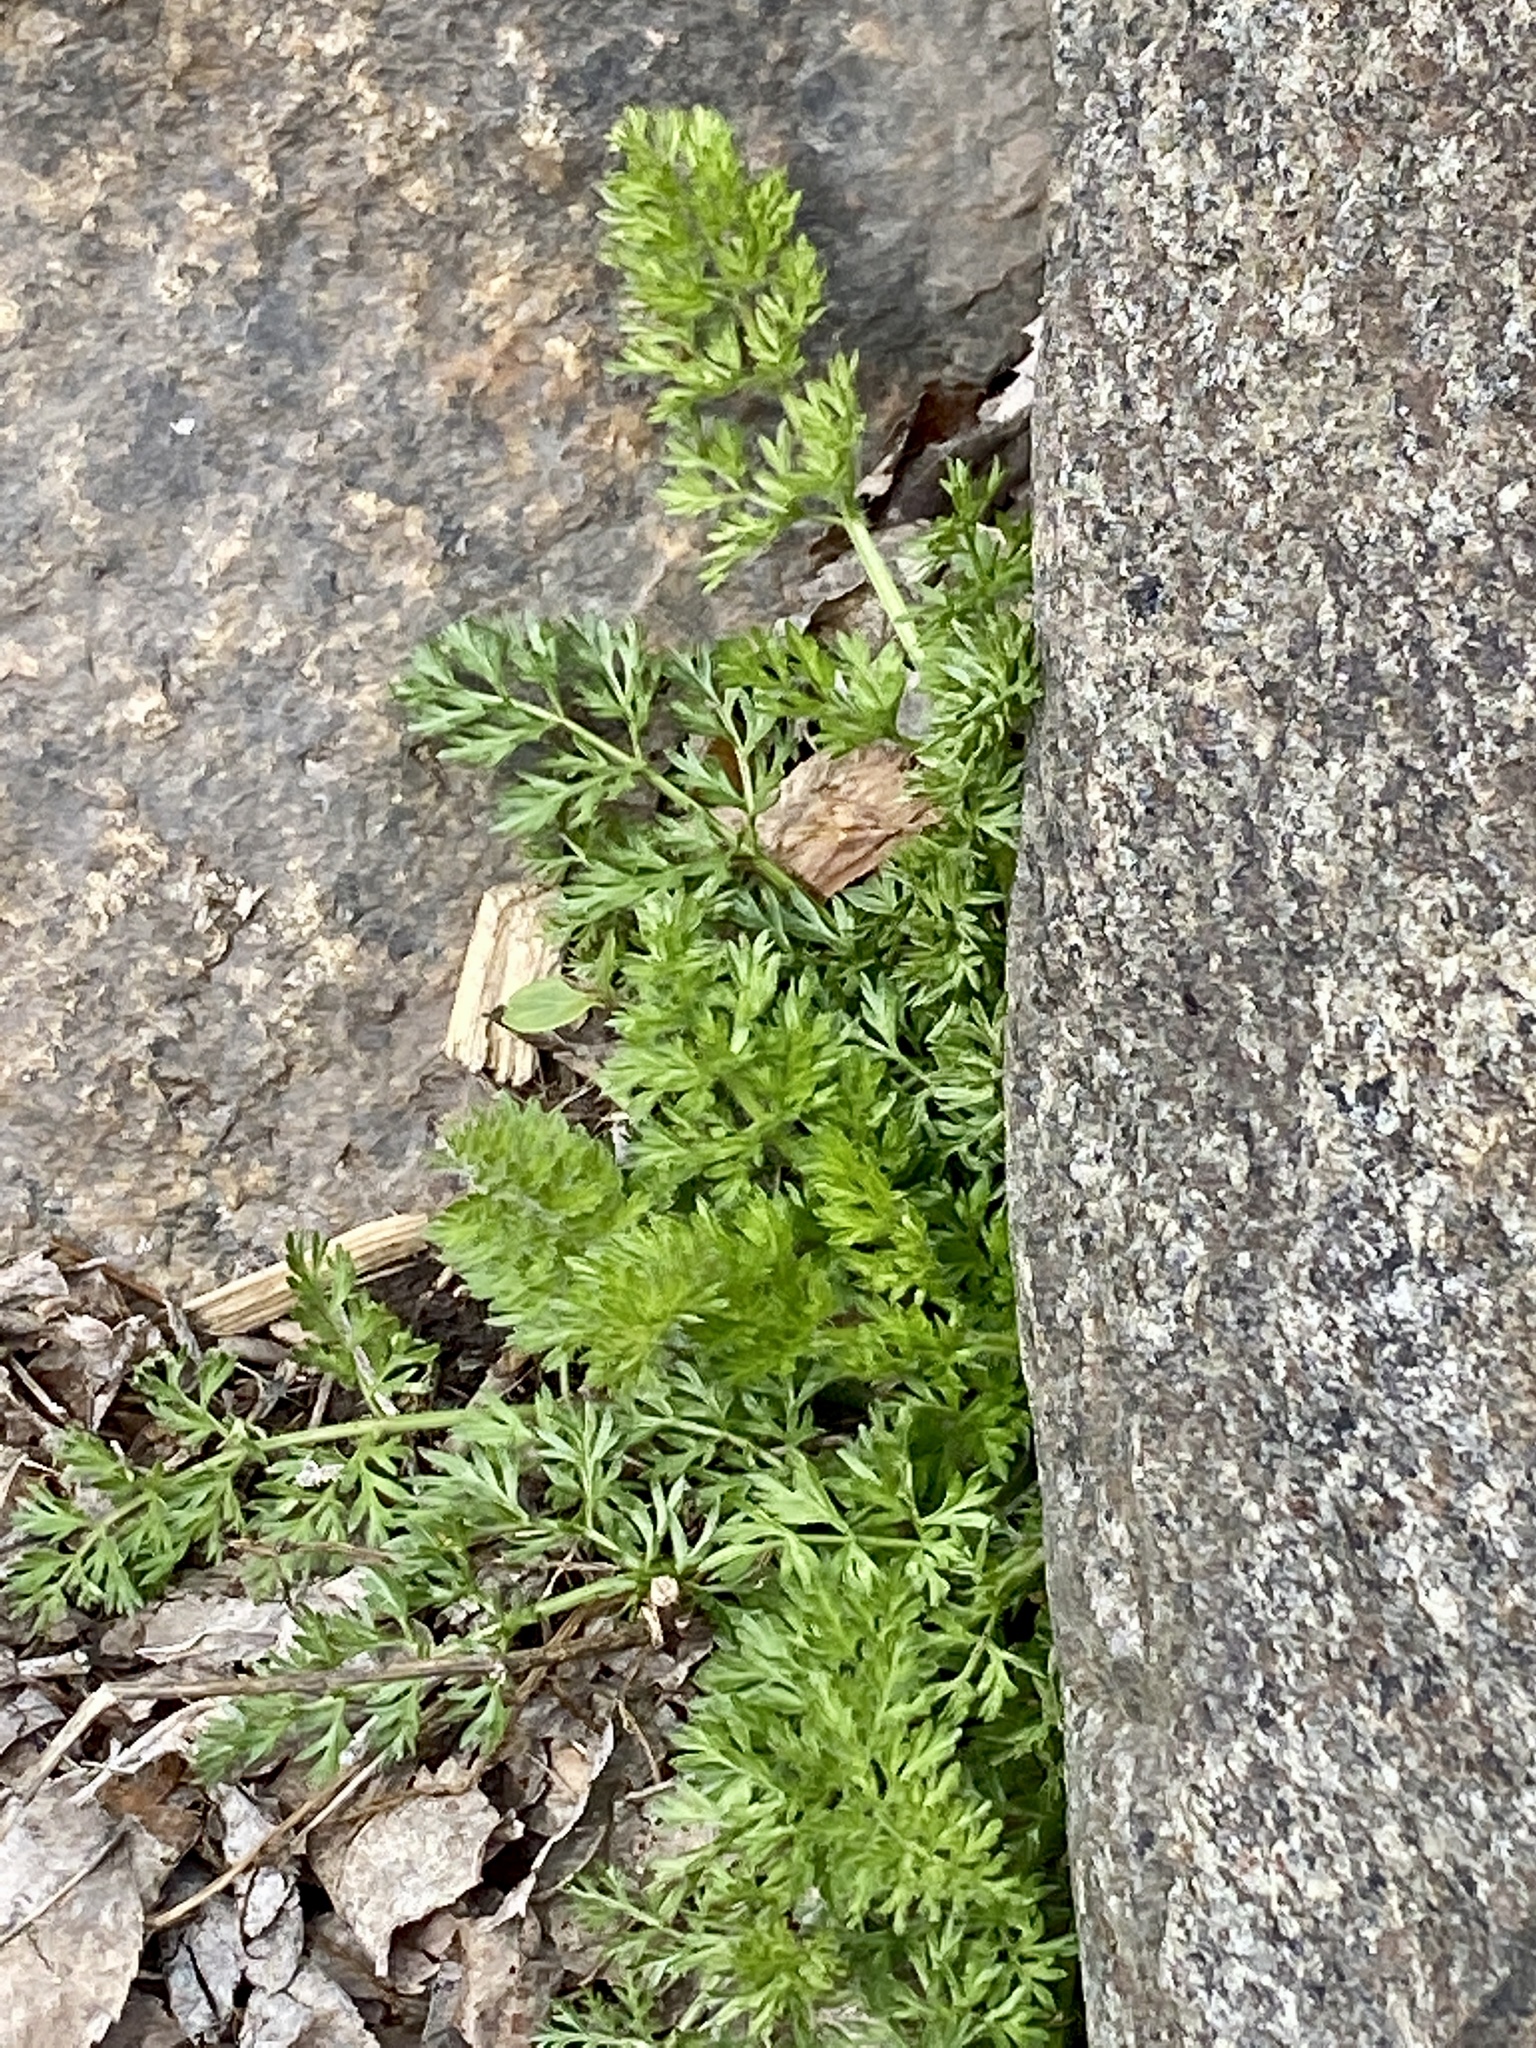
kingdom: Plantae
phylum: Tracheophyta
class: Magnoliopsida
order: Apiales
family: Apiaceae
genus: Daucus
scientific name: Daucus carota
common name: Wild carrot
